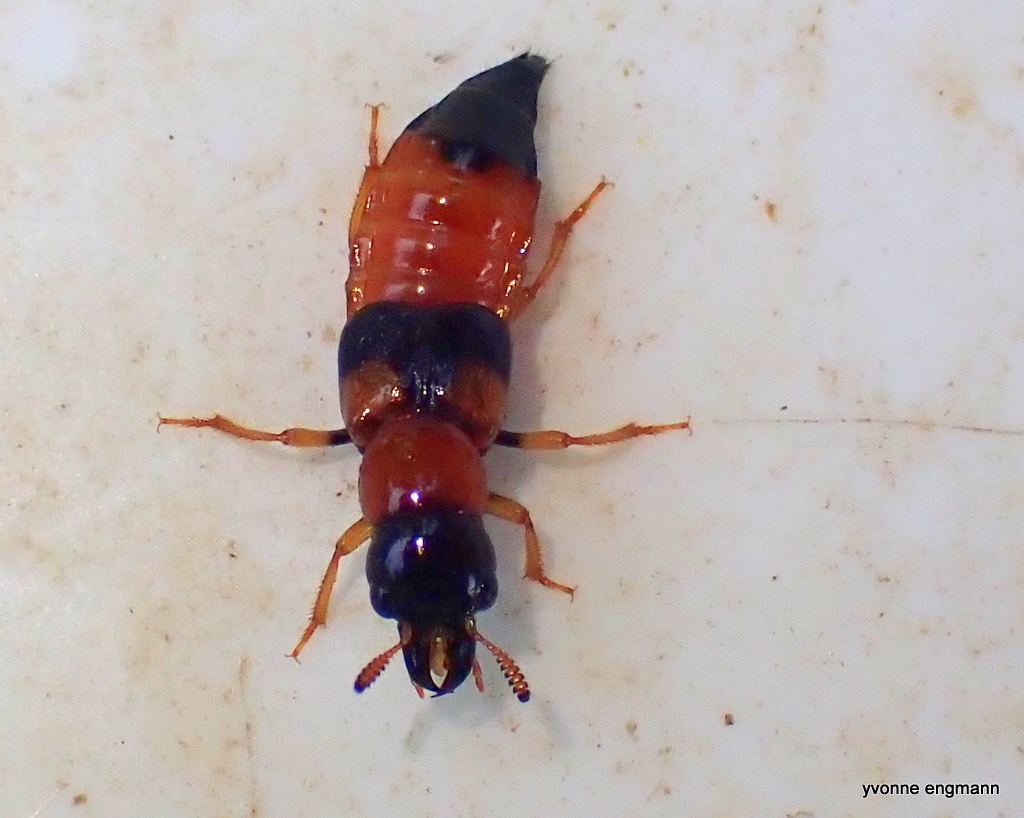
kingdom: Animalia
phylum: Arthropoda
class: Insecta
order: Coleoptera
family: Staphylinidae
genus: Oxyporus
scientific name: Oxyporus rufus
